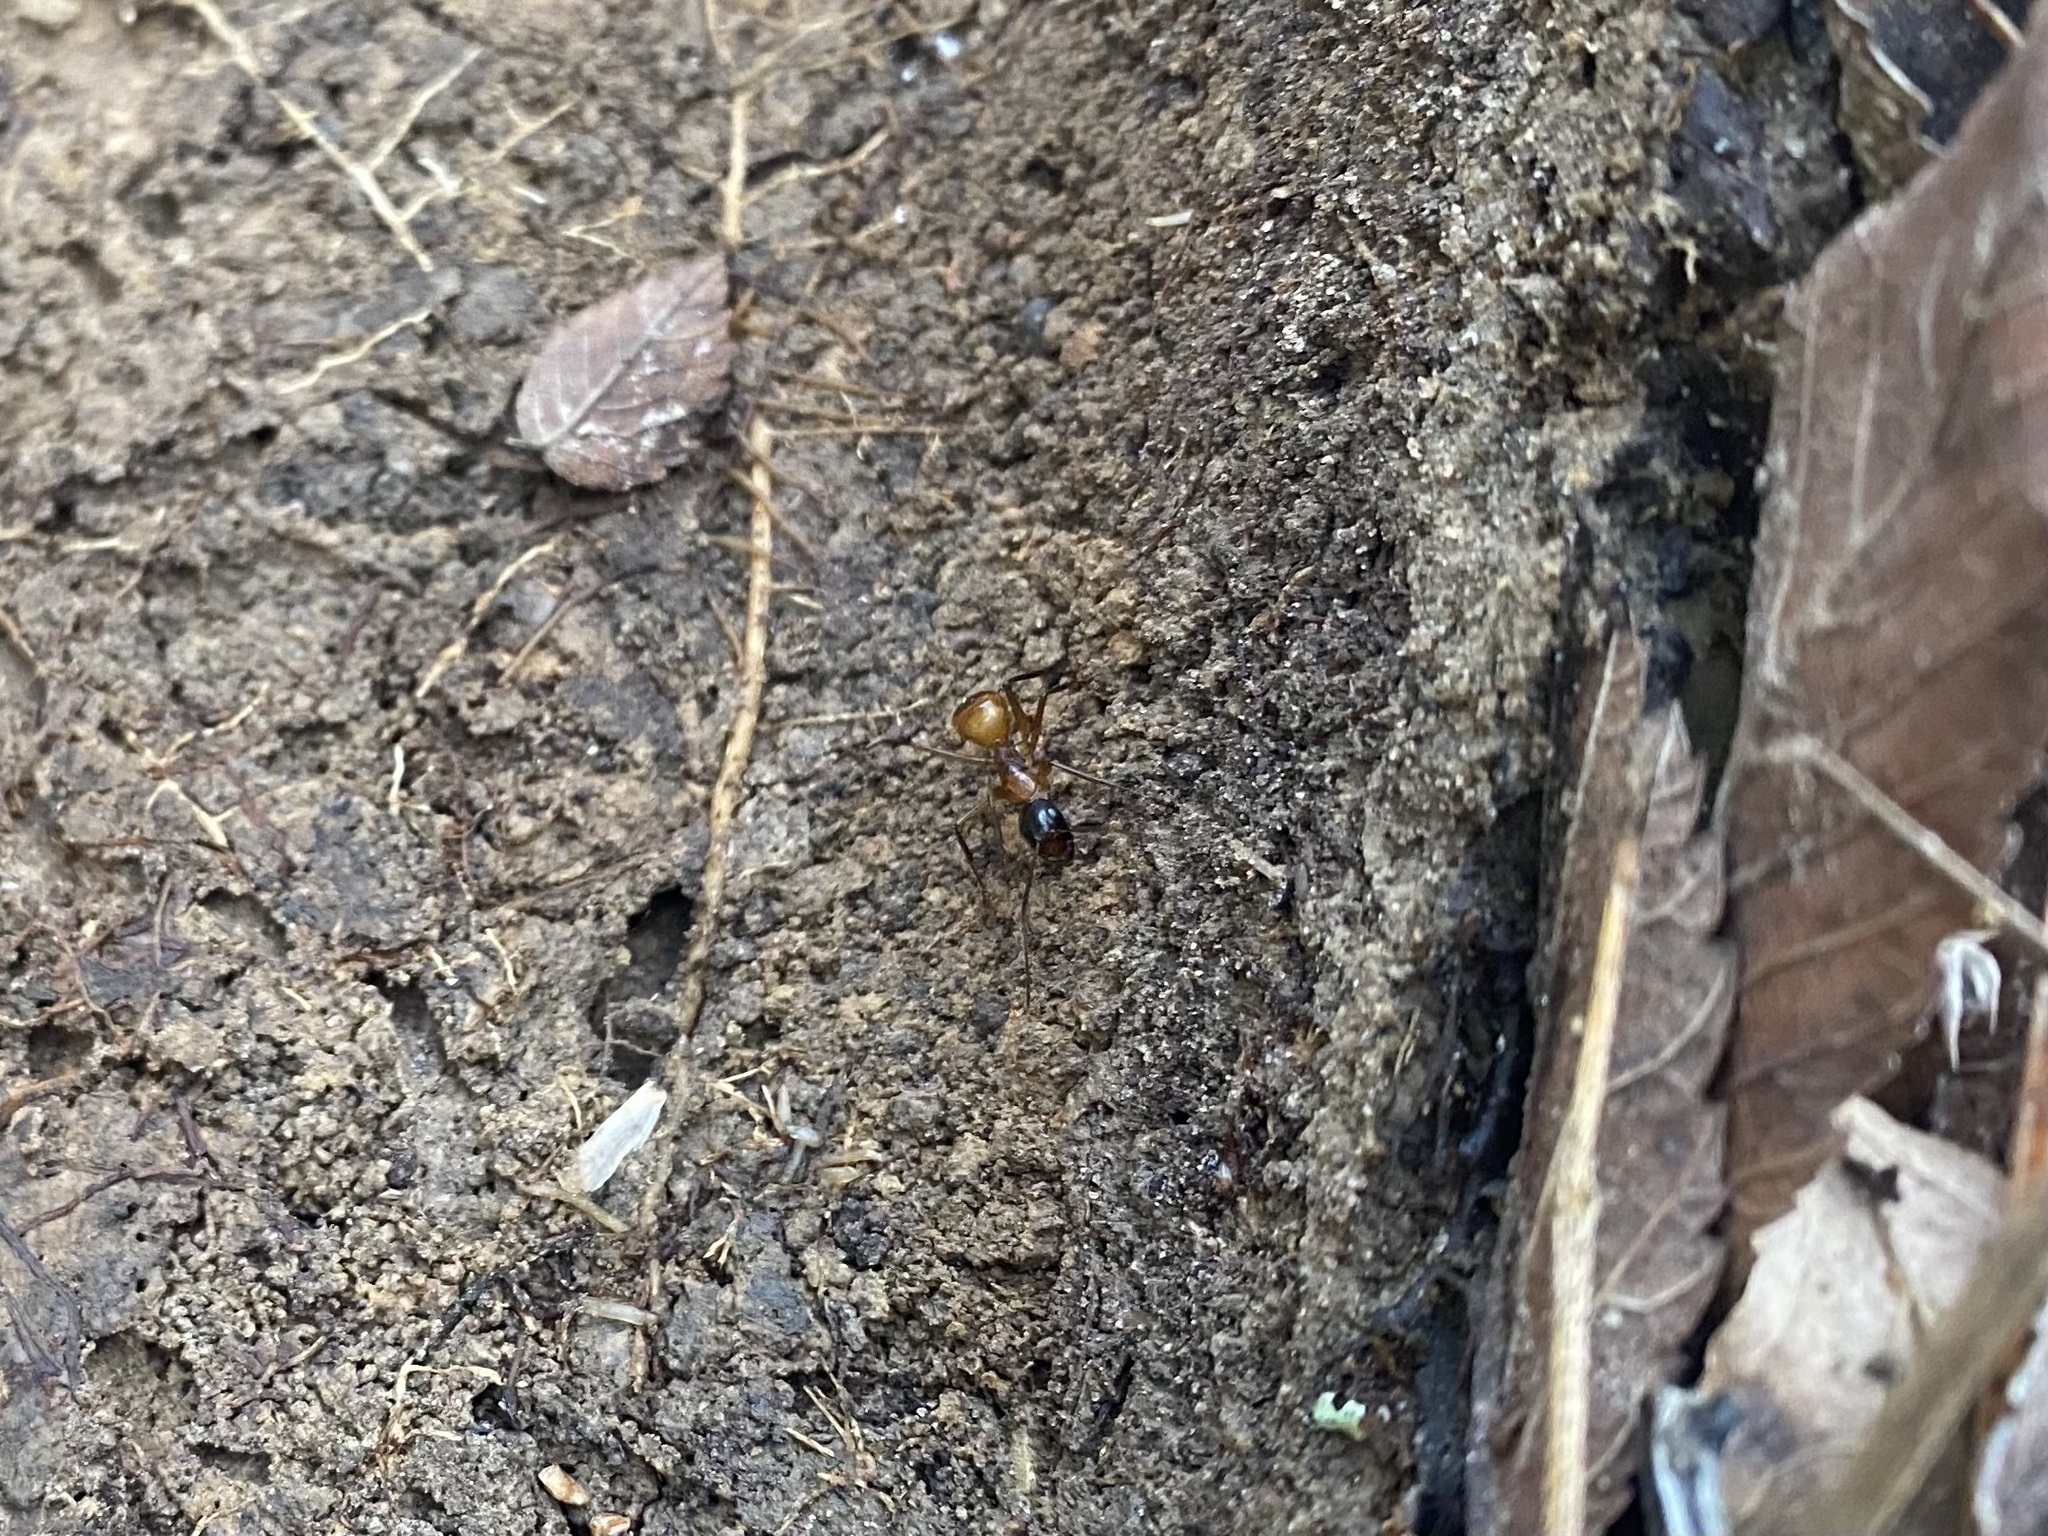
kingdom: Animalia
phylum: Arthropoda
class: Insecta
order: Hymenoptera
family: Formicidae
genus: Camponotus
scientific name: Camponotus americanus
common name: American carpenter ant
